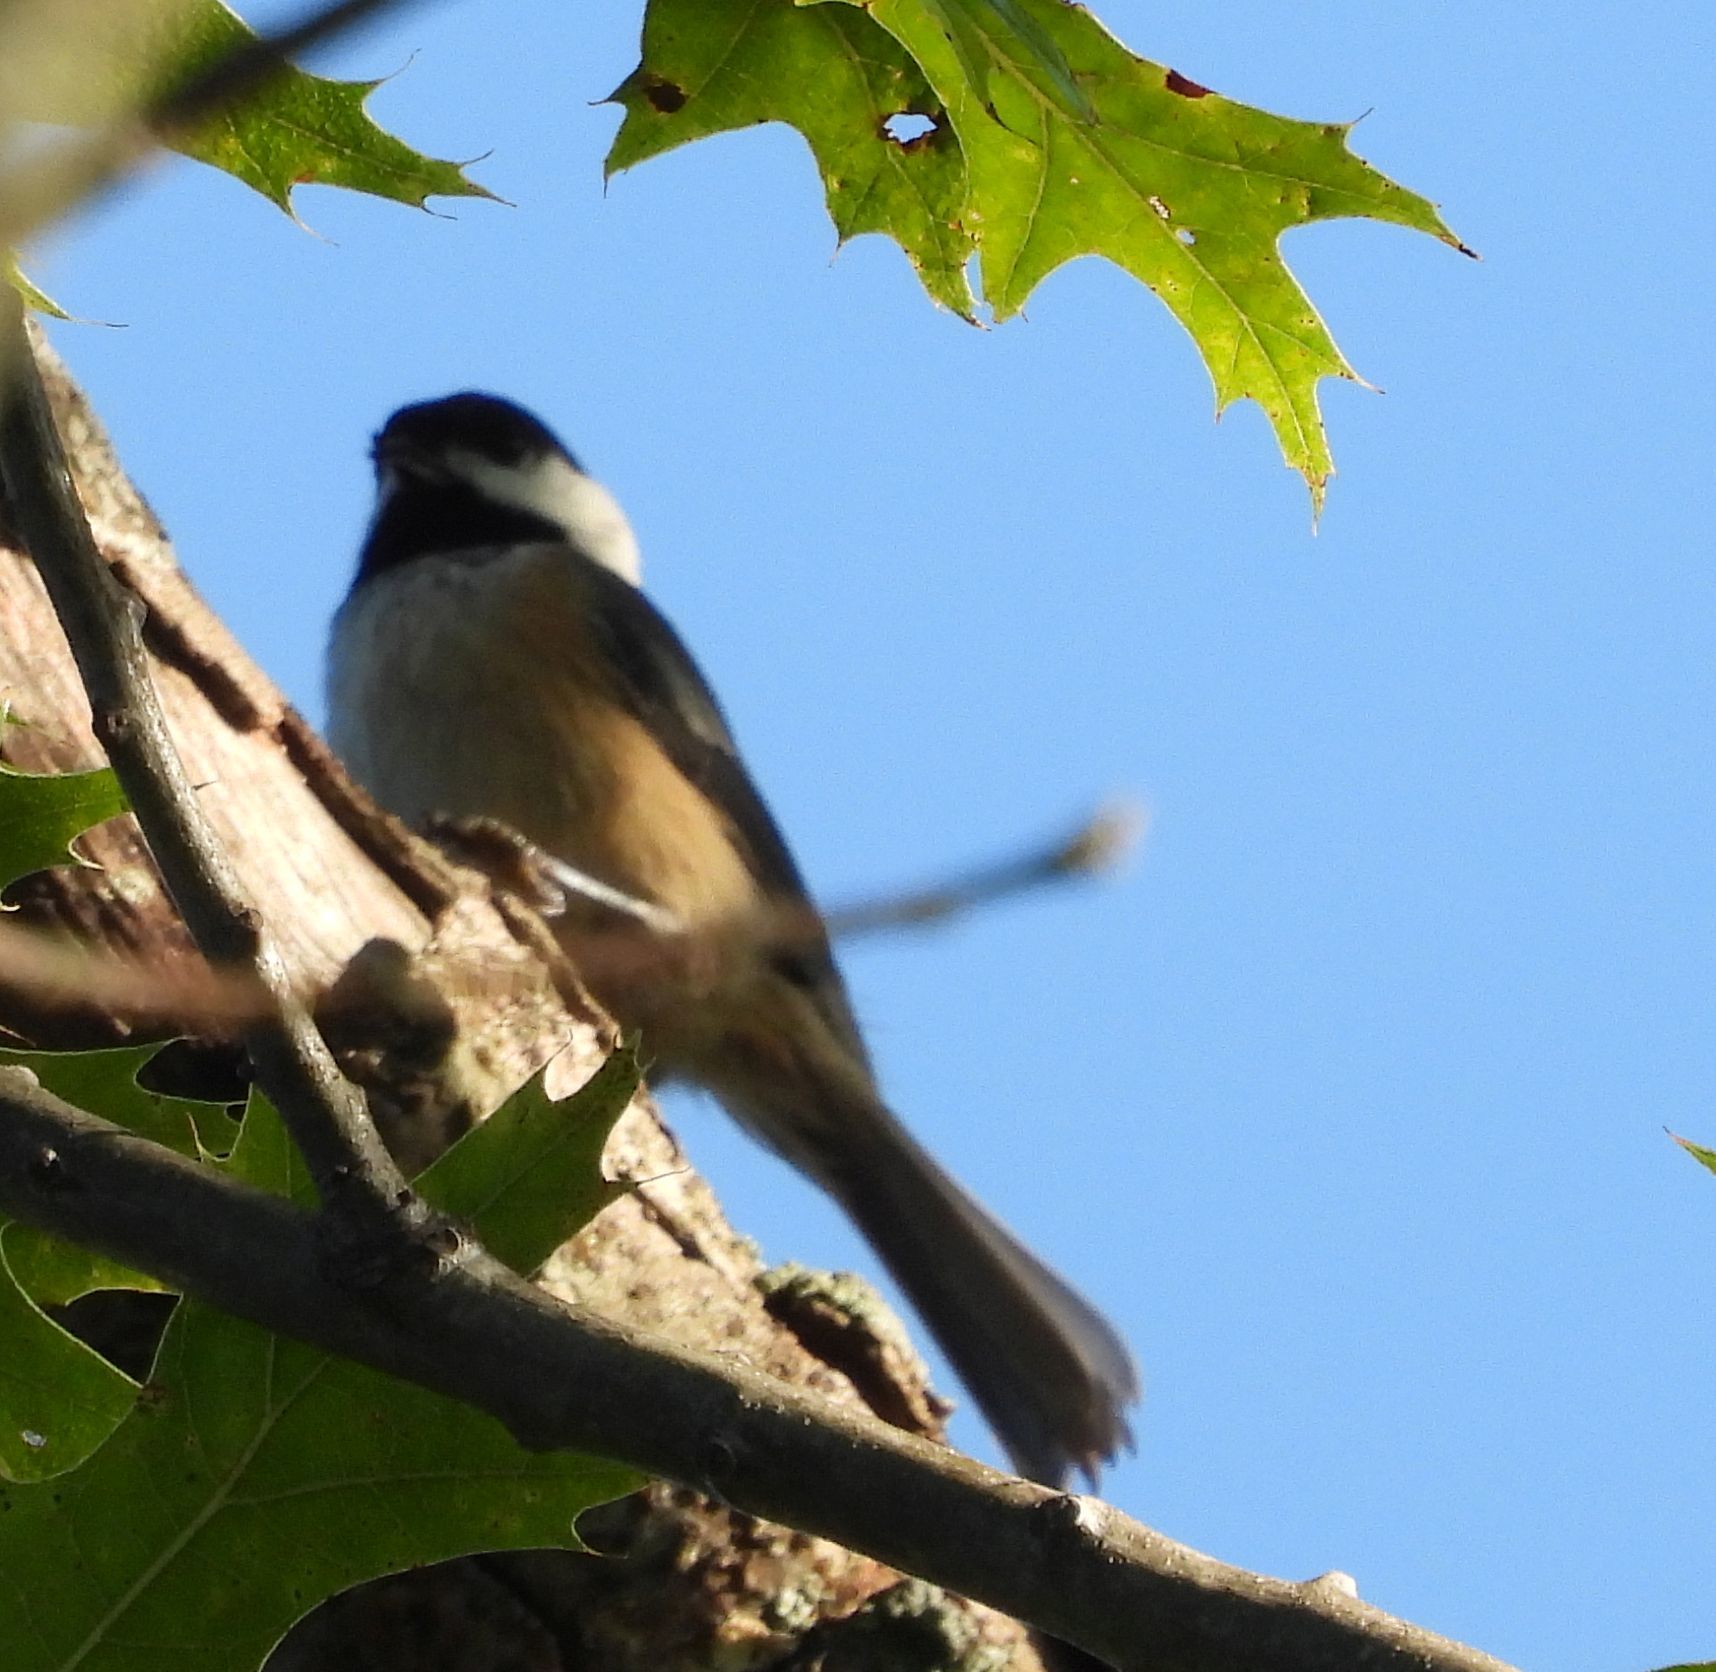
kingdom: Animalia
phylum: Chordata
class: Aves
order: Passeriformes
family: Paridae
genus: Poecile
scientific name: Poecile atricapillus
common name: Black-capped chickadee
